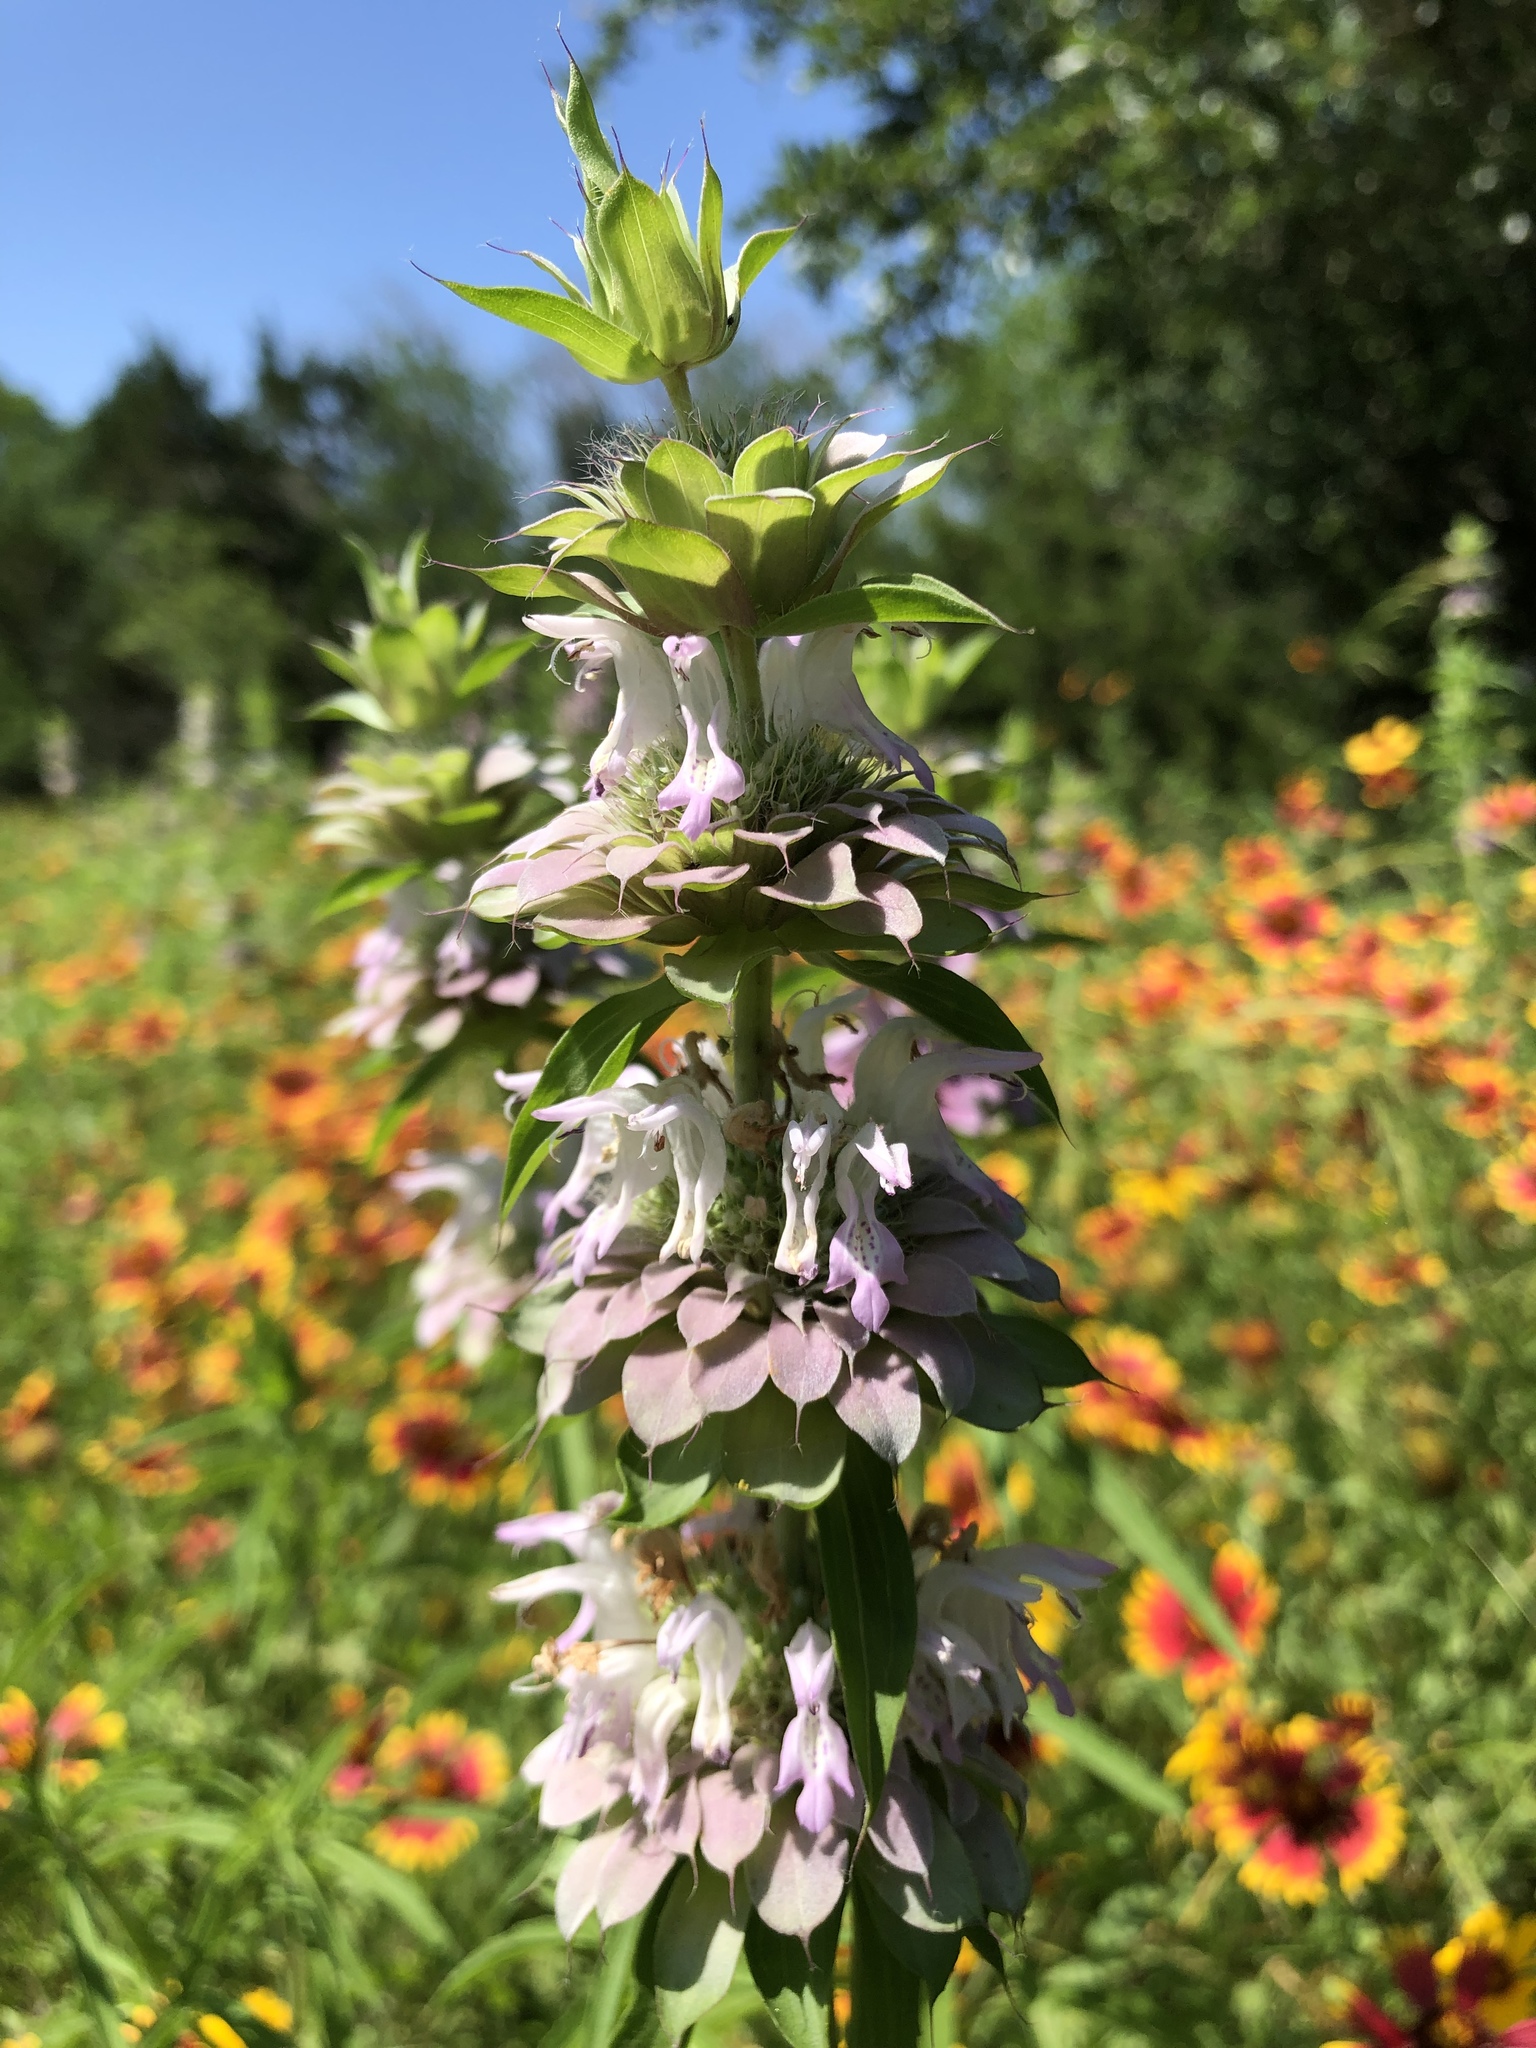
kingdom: Plantae
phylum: Tracheophyta
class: Magnoliopsida
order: Lamiales
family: Lamiaceae
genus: Monarda
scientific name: Monarda citriodora
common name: Lemon beebalm
